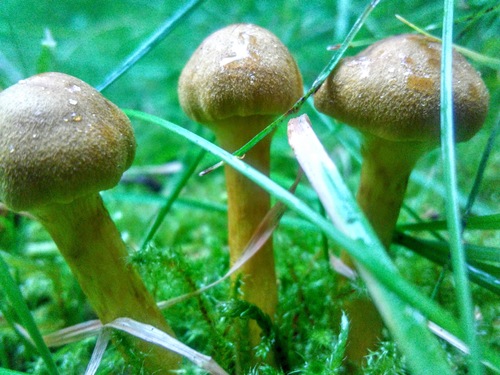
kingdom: Fungi
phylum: Basidiomycota
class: Agaricomycetes
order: Agaricales
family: Cortinariaceae
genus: Cortinarius
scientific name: Cortinarius cinnamomeus
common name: Cinnamon webcap
